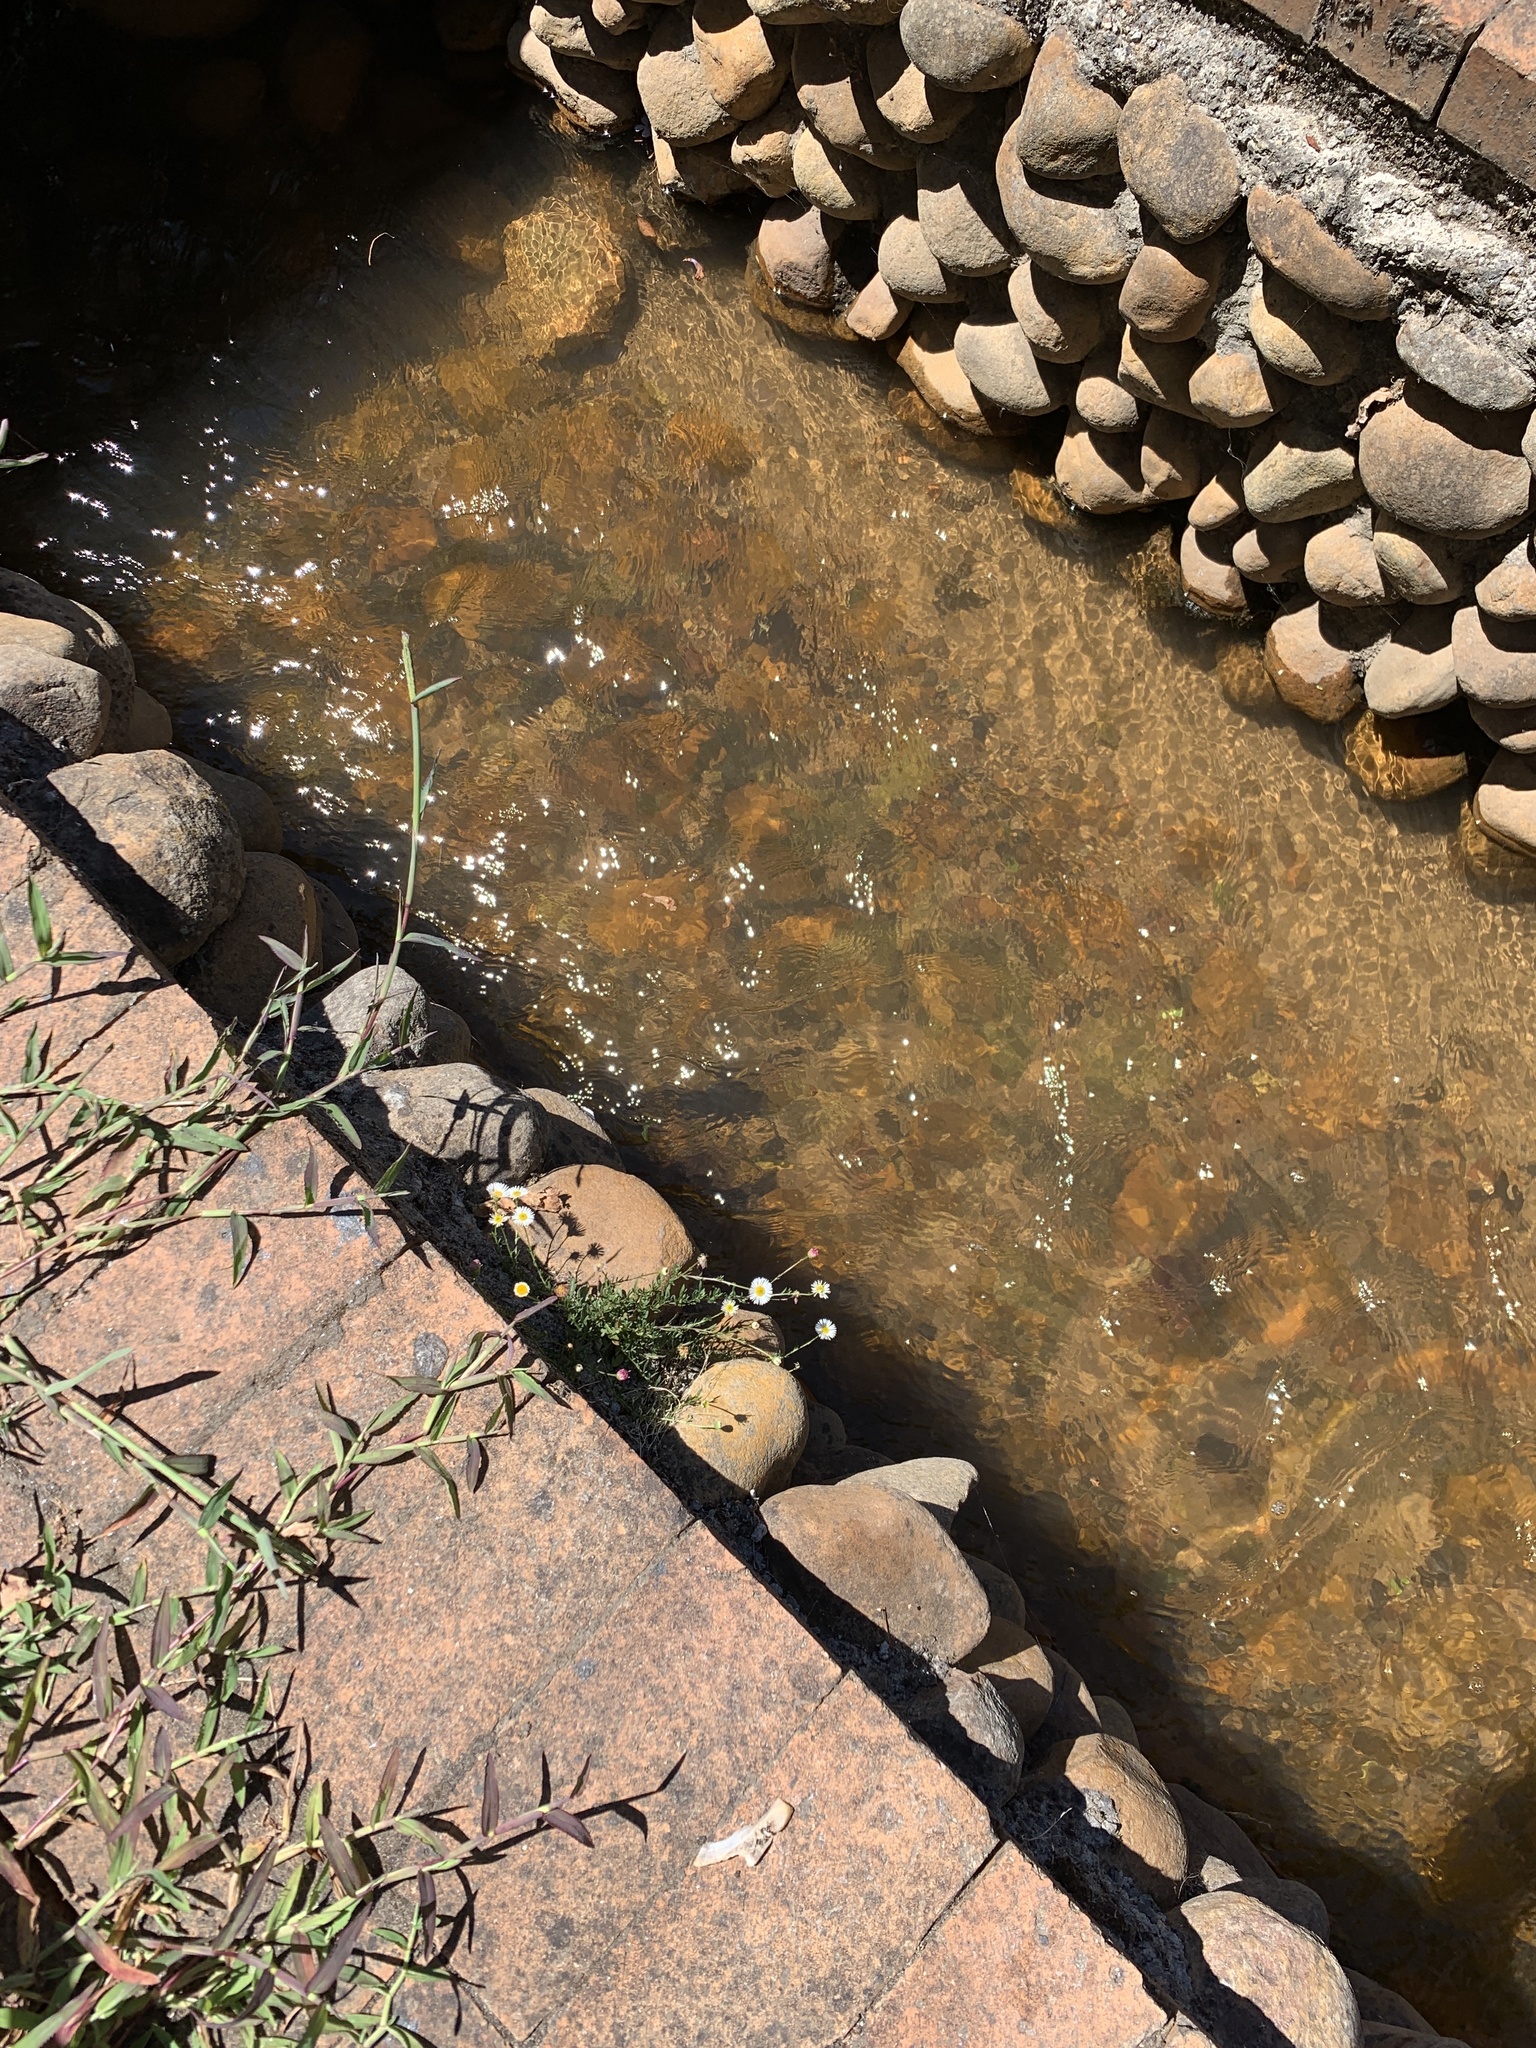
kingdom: Plantae
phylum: Tracheophyta
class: Magnoliopsida
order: Asterales
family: Asteraceae
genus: Erigeron
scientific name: Erigeron karvinskianus
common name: Mexican fleabane
